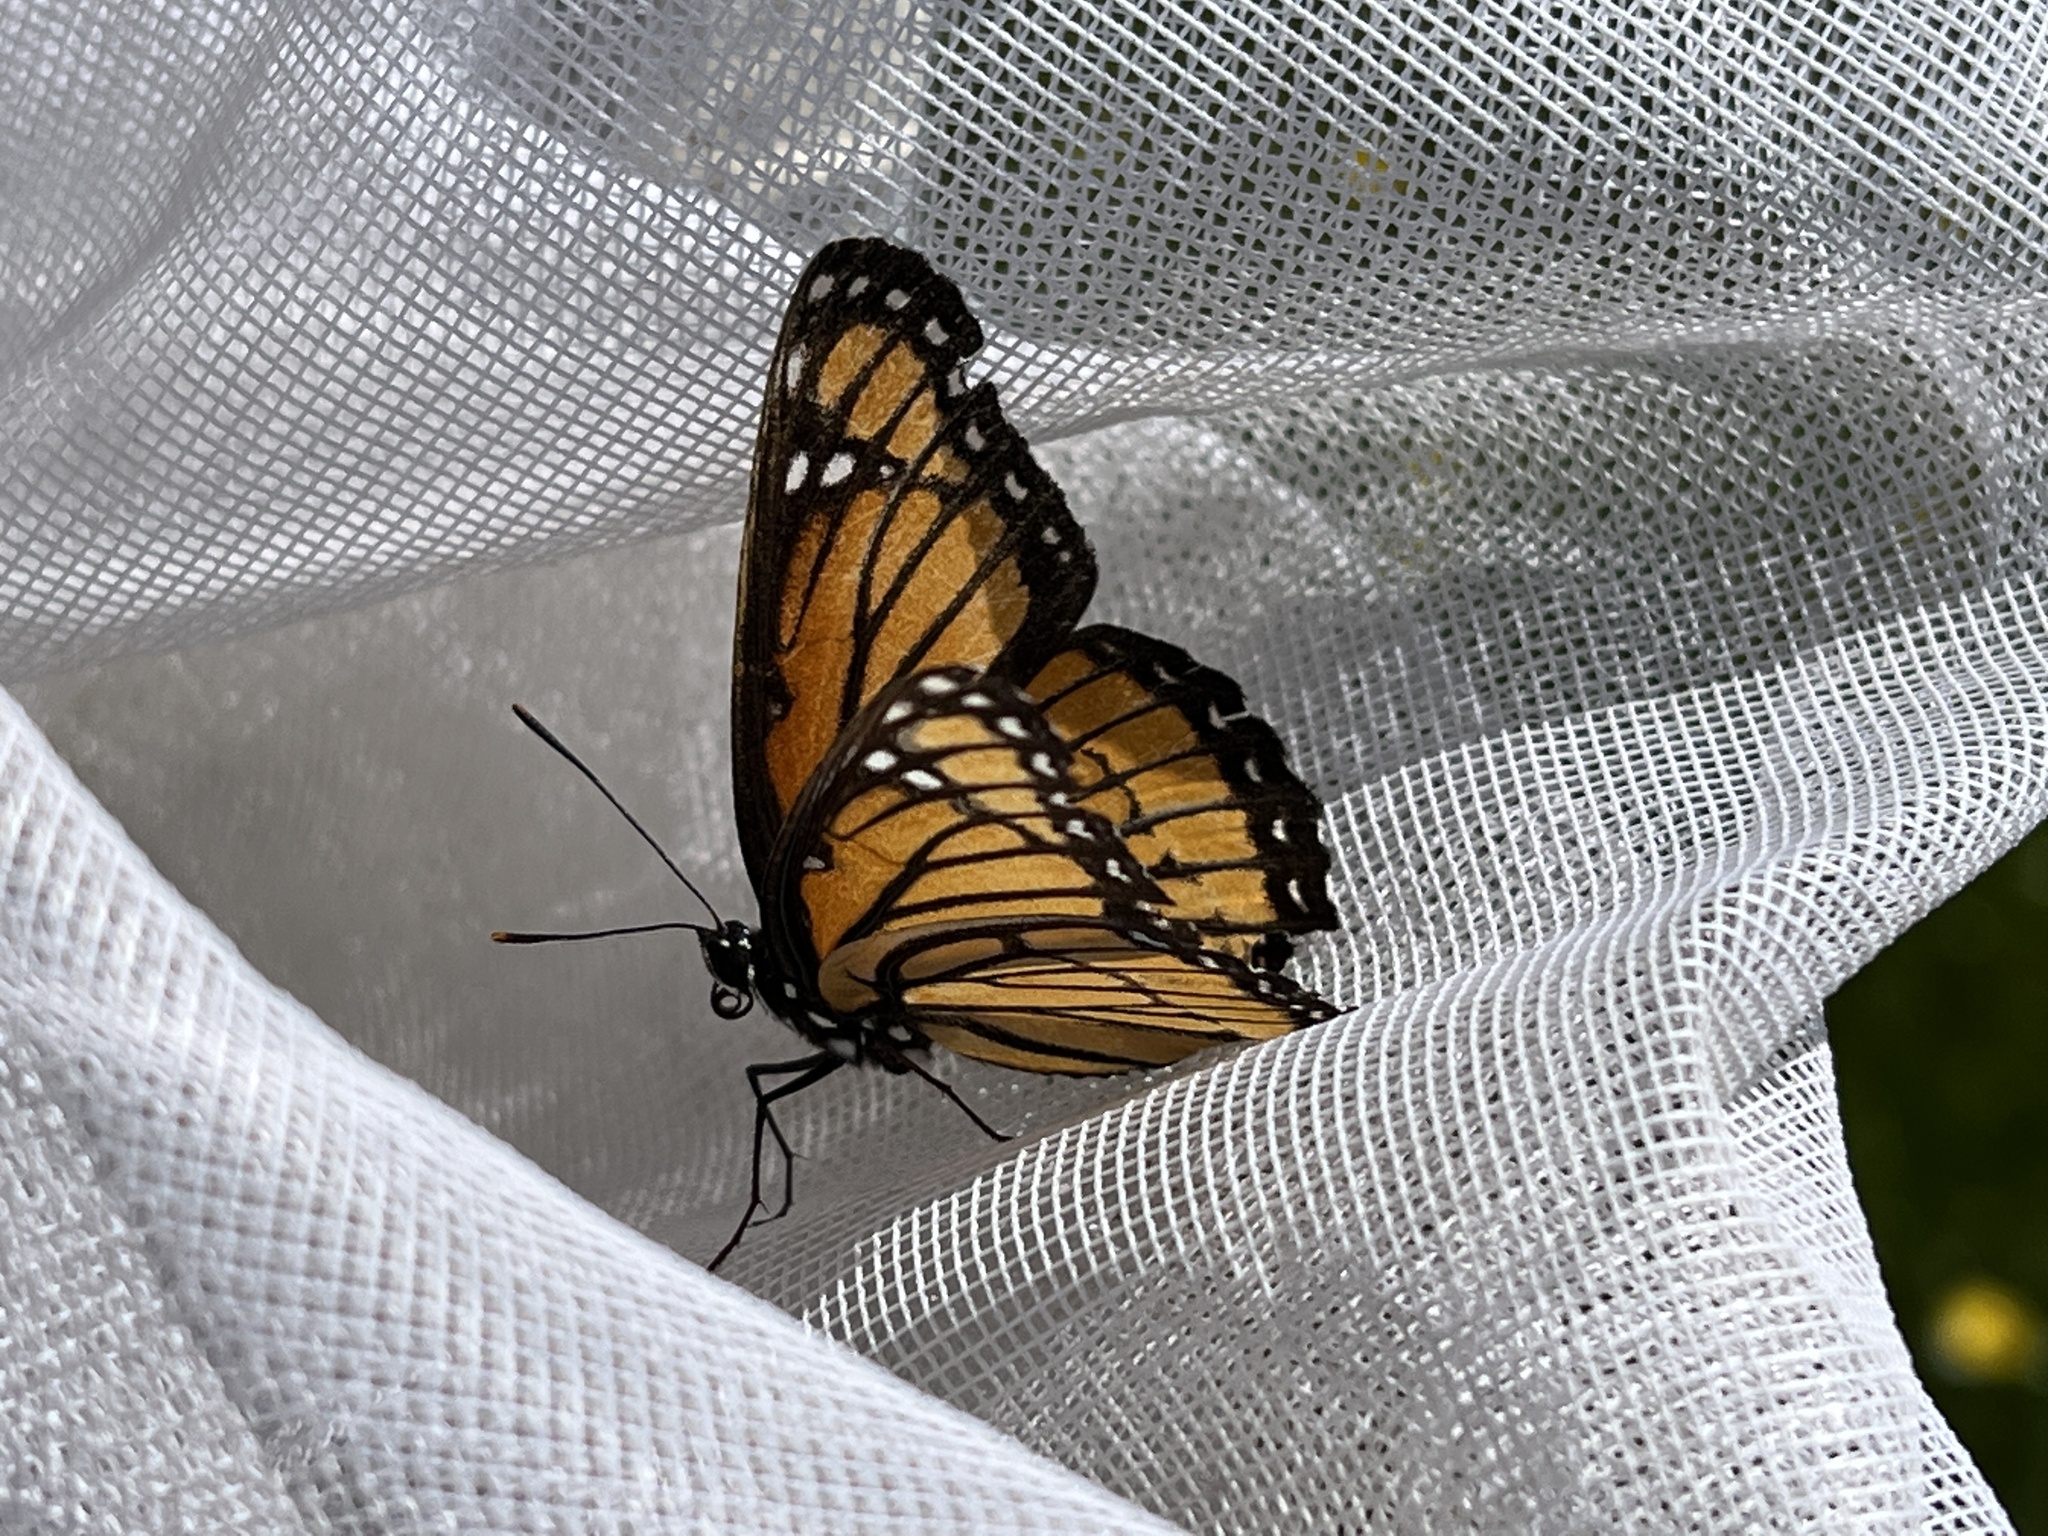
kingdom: Animalia
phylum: Arthropoda
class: Insecta
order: Lepidoptera
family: Nymphalidae
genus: Limenitis
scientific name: Limenitis archippus
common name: Viceroy
